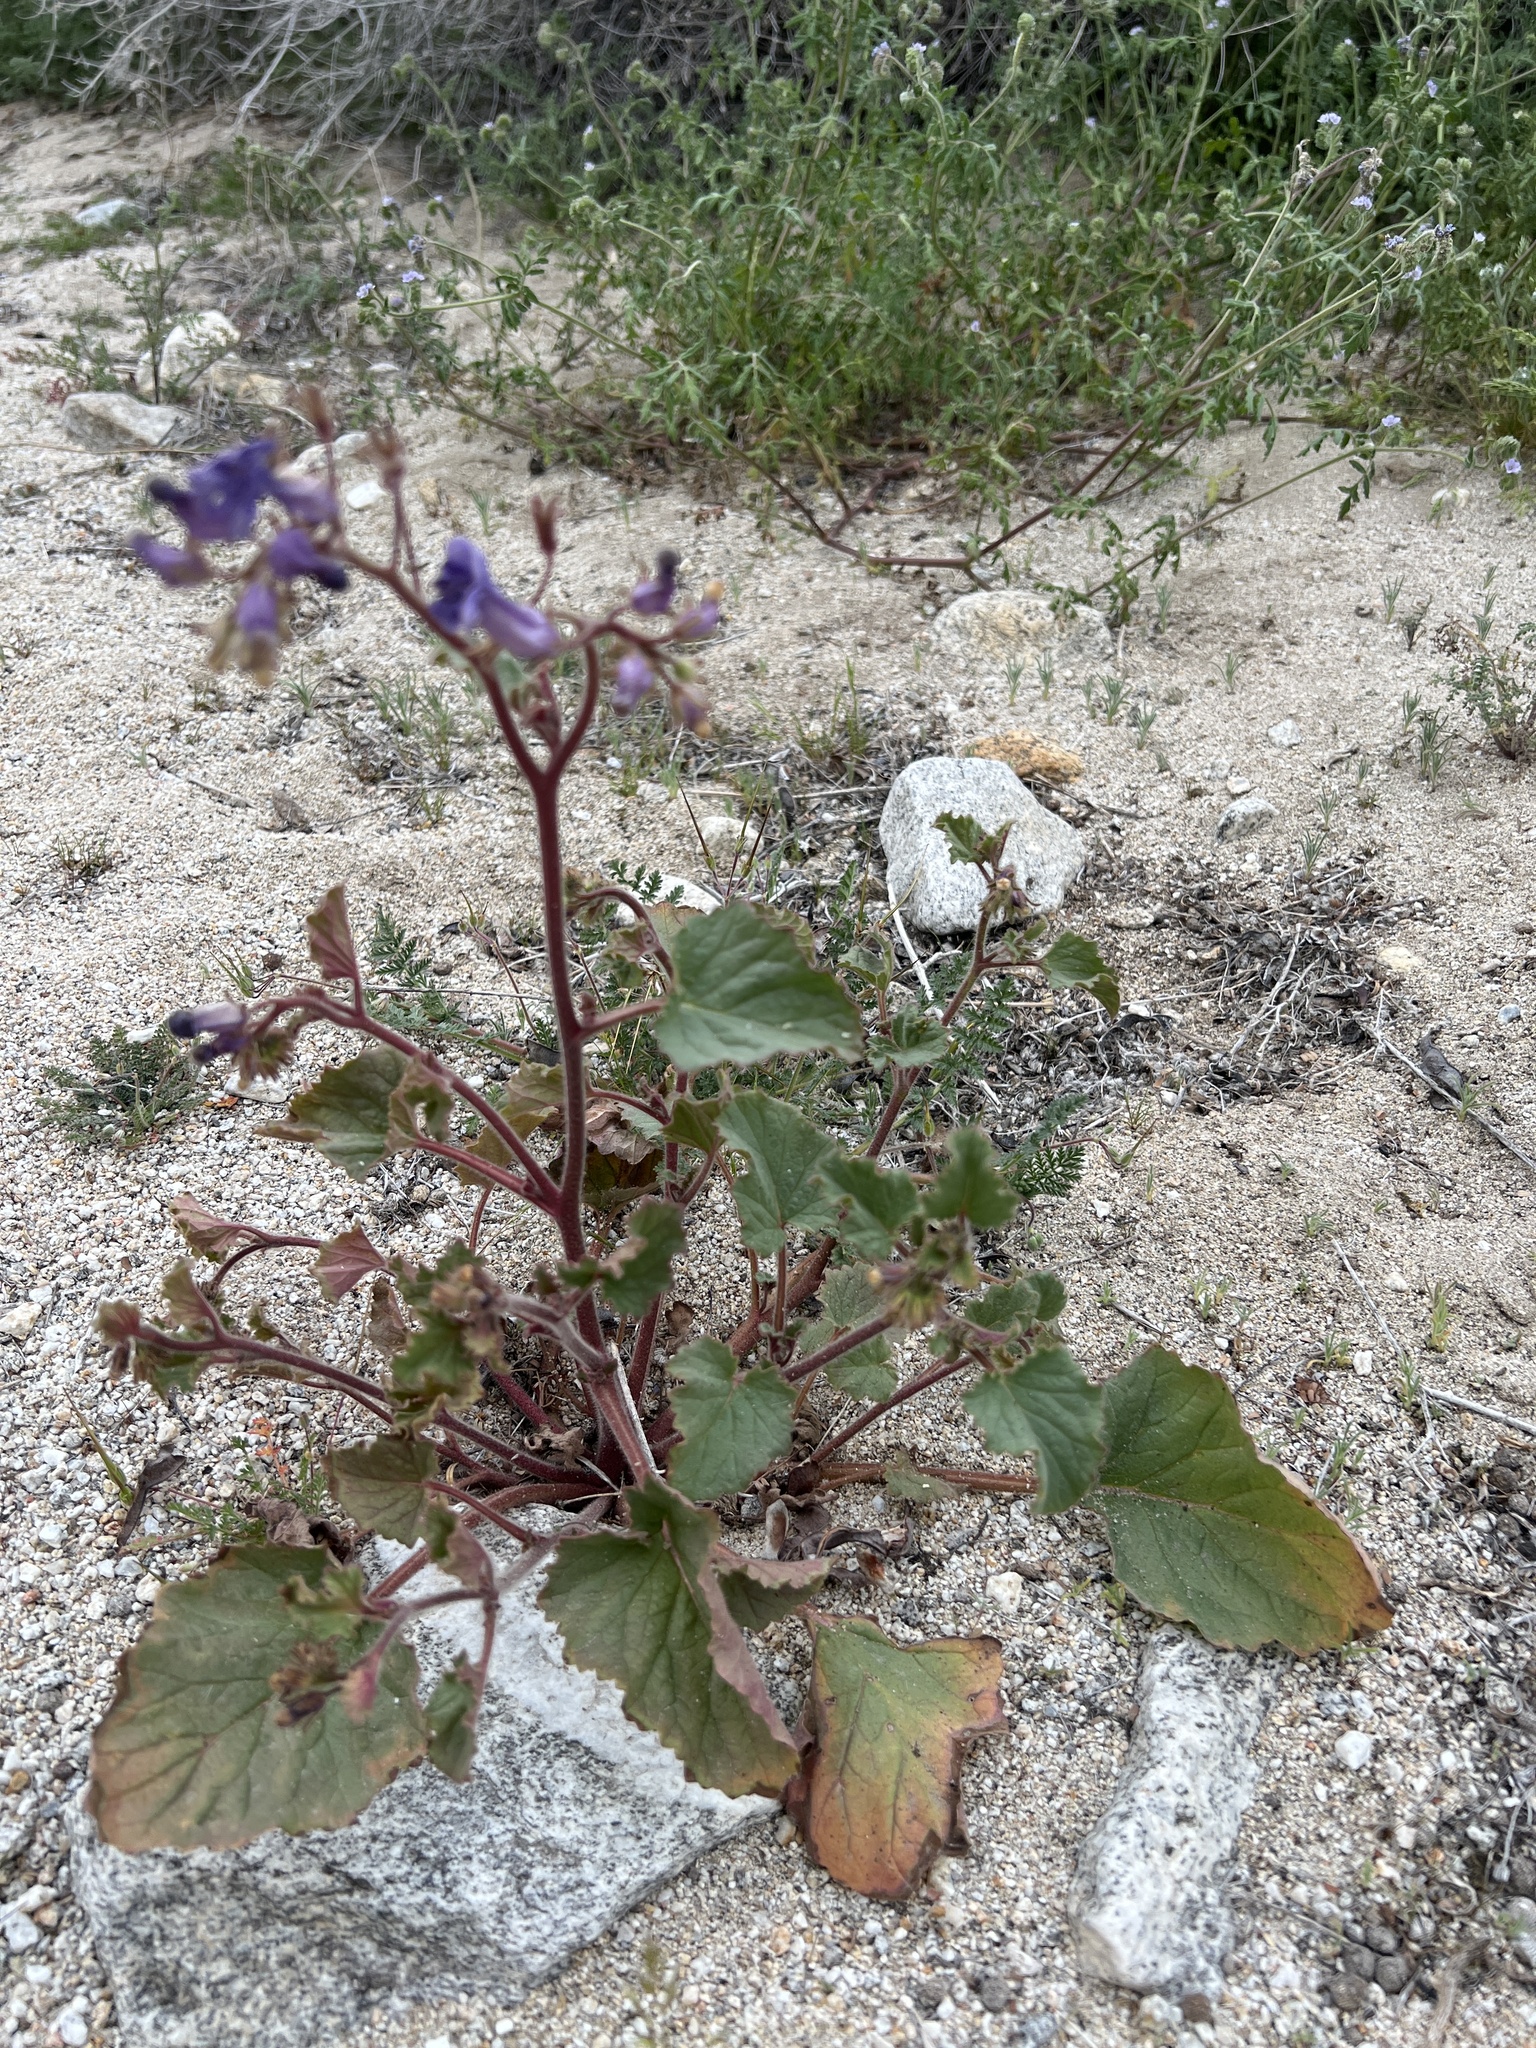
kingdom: Plantae
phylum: Tracheophyta
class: Magnoliopsida
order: Boraginales
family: Hydrophyllaceae
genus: Phacelia
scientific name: Phacelia minor
